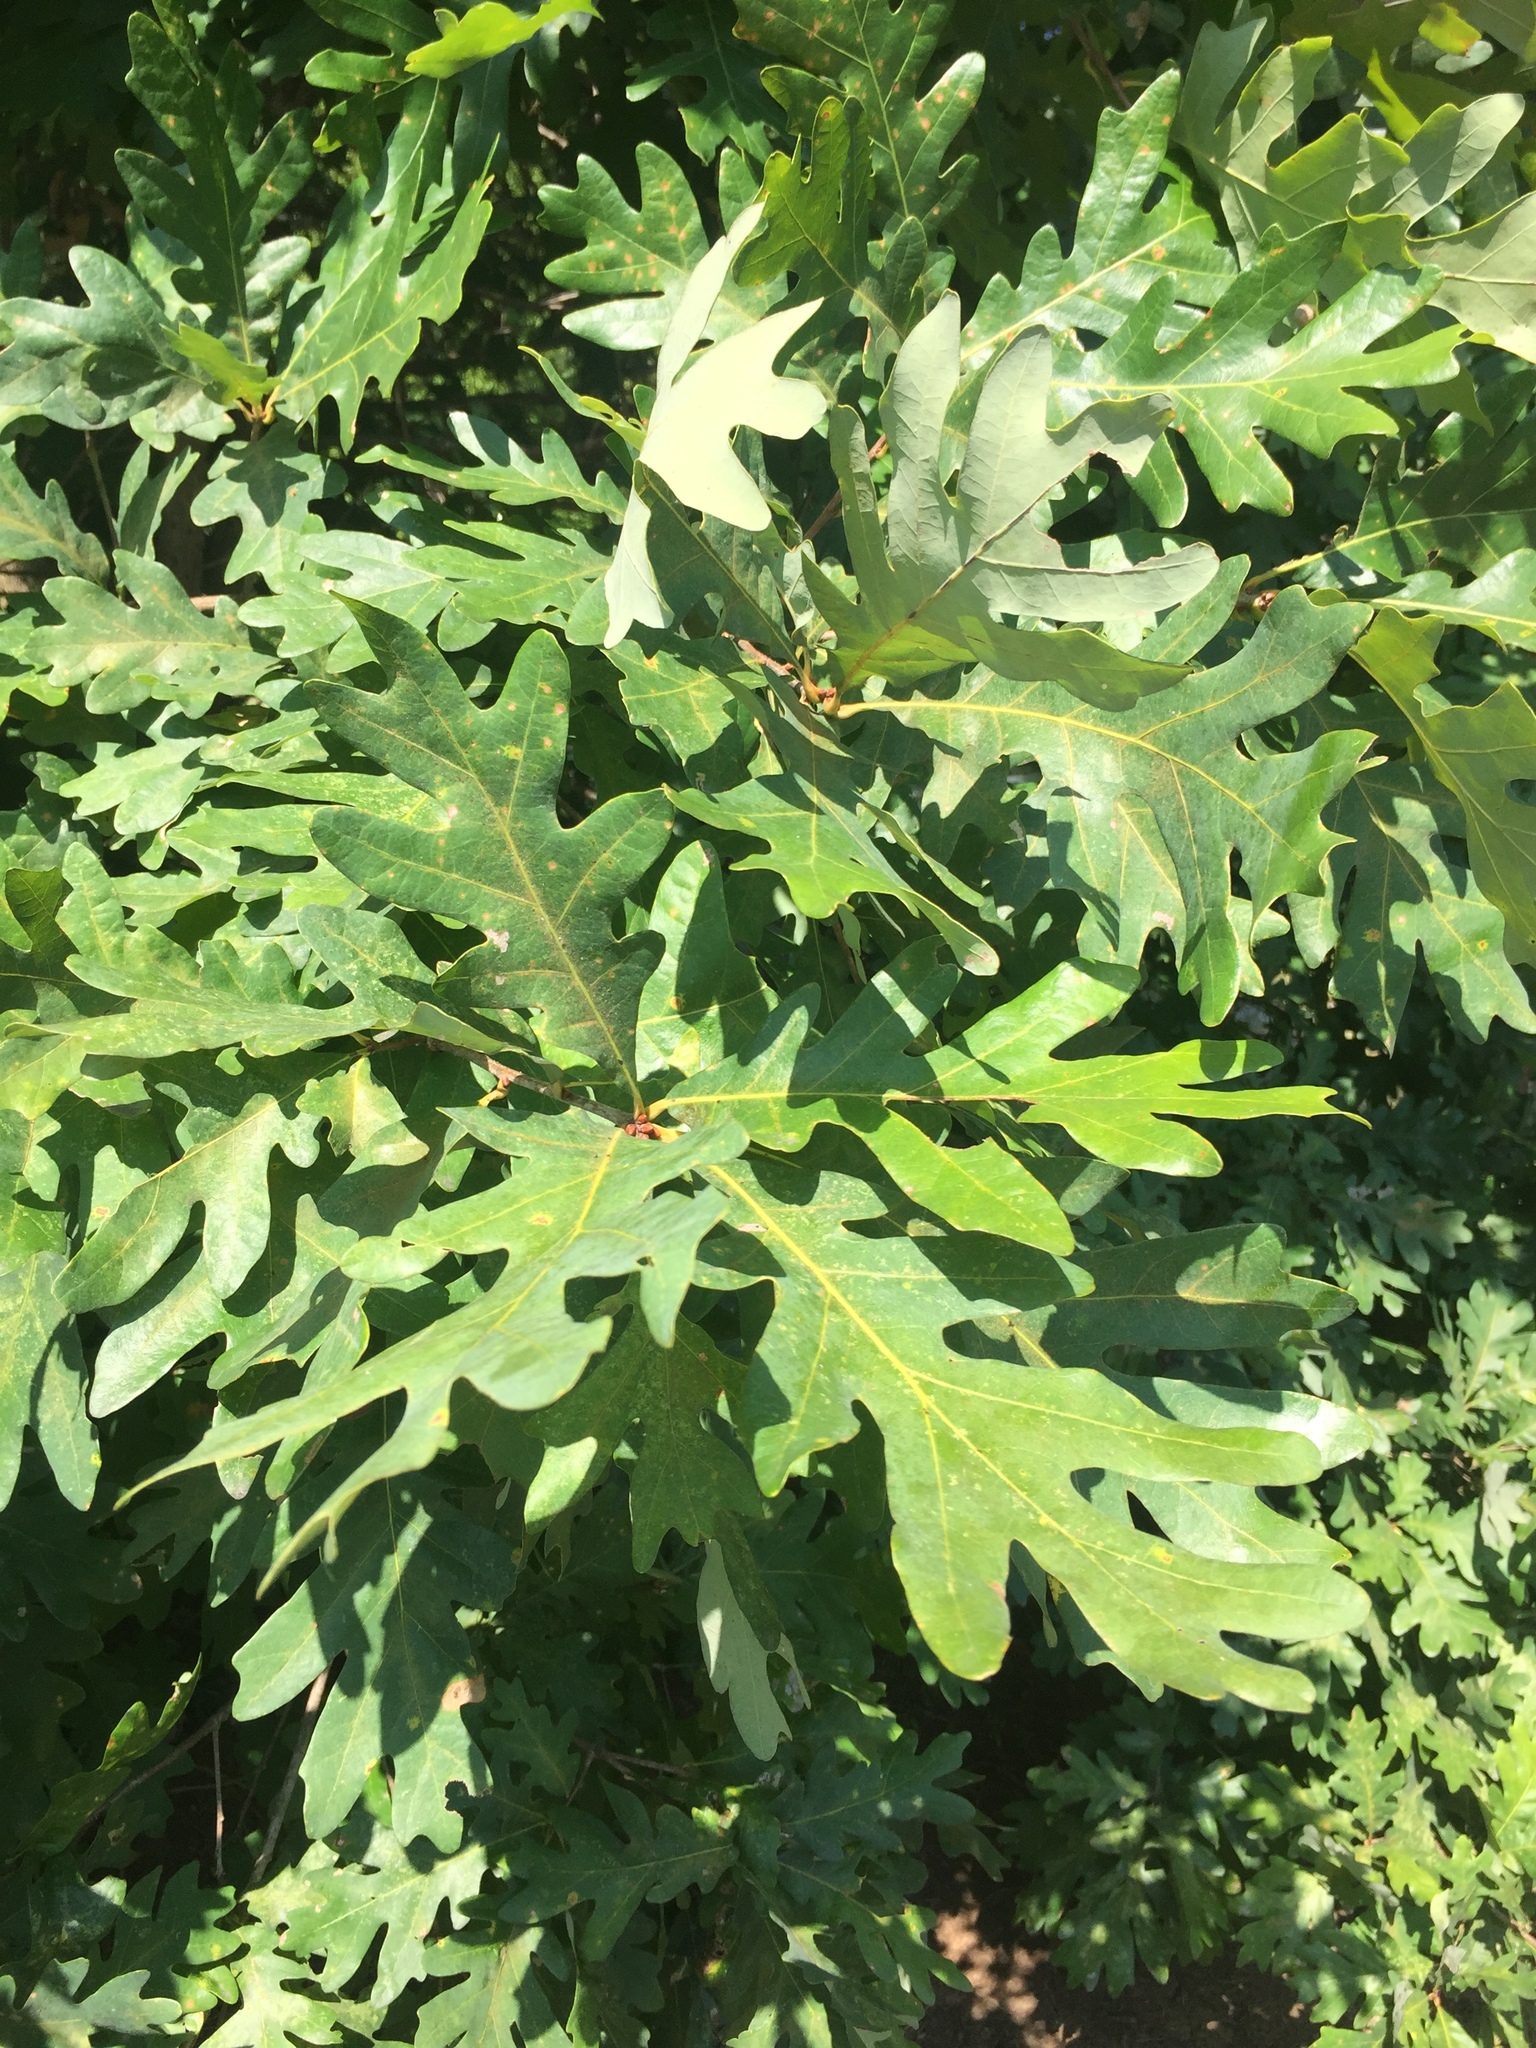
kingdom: Plantae
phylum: Tracheophyta
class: Magnoliopsida
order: Fagales
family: Fagaceae
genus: Quercus
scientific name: Quercus alba
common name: White oak
